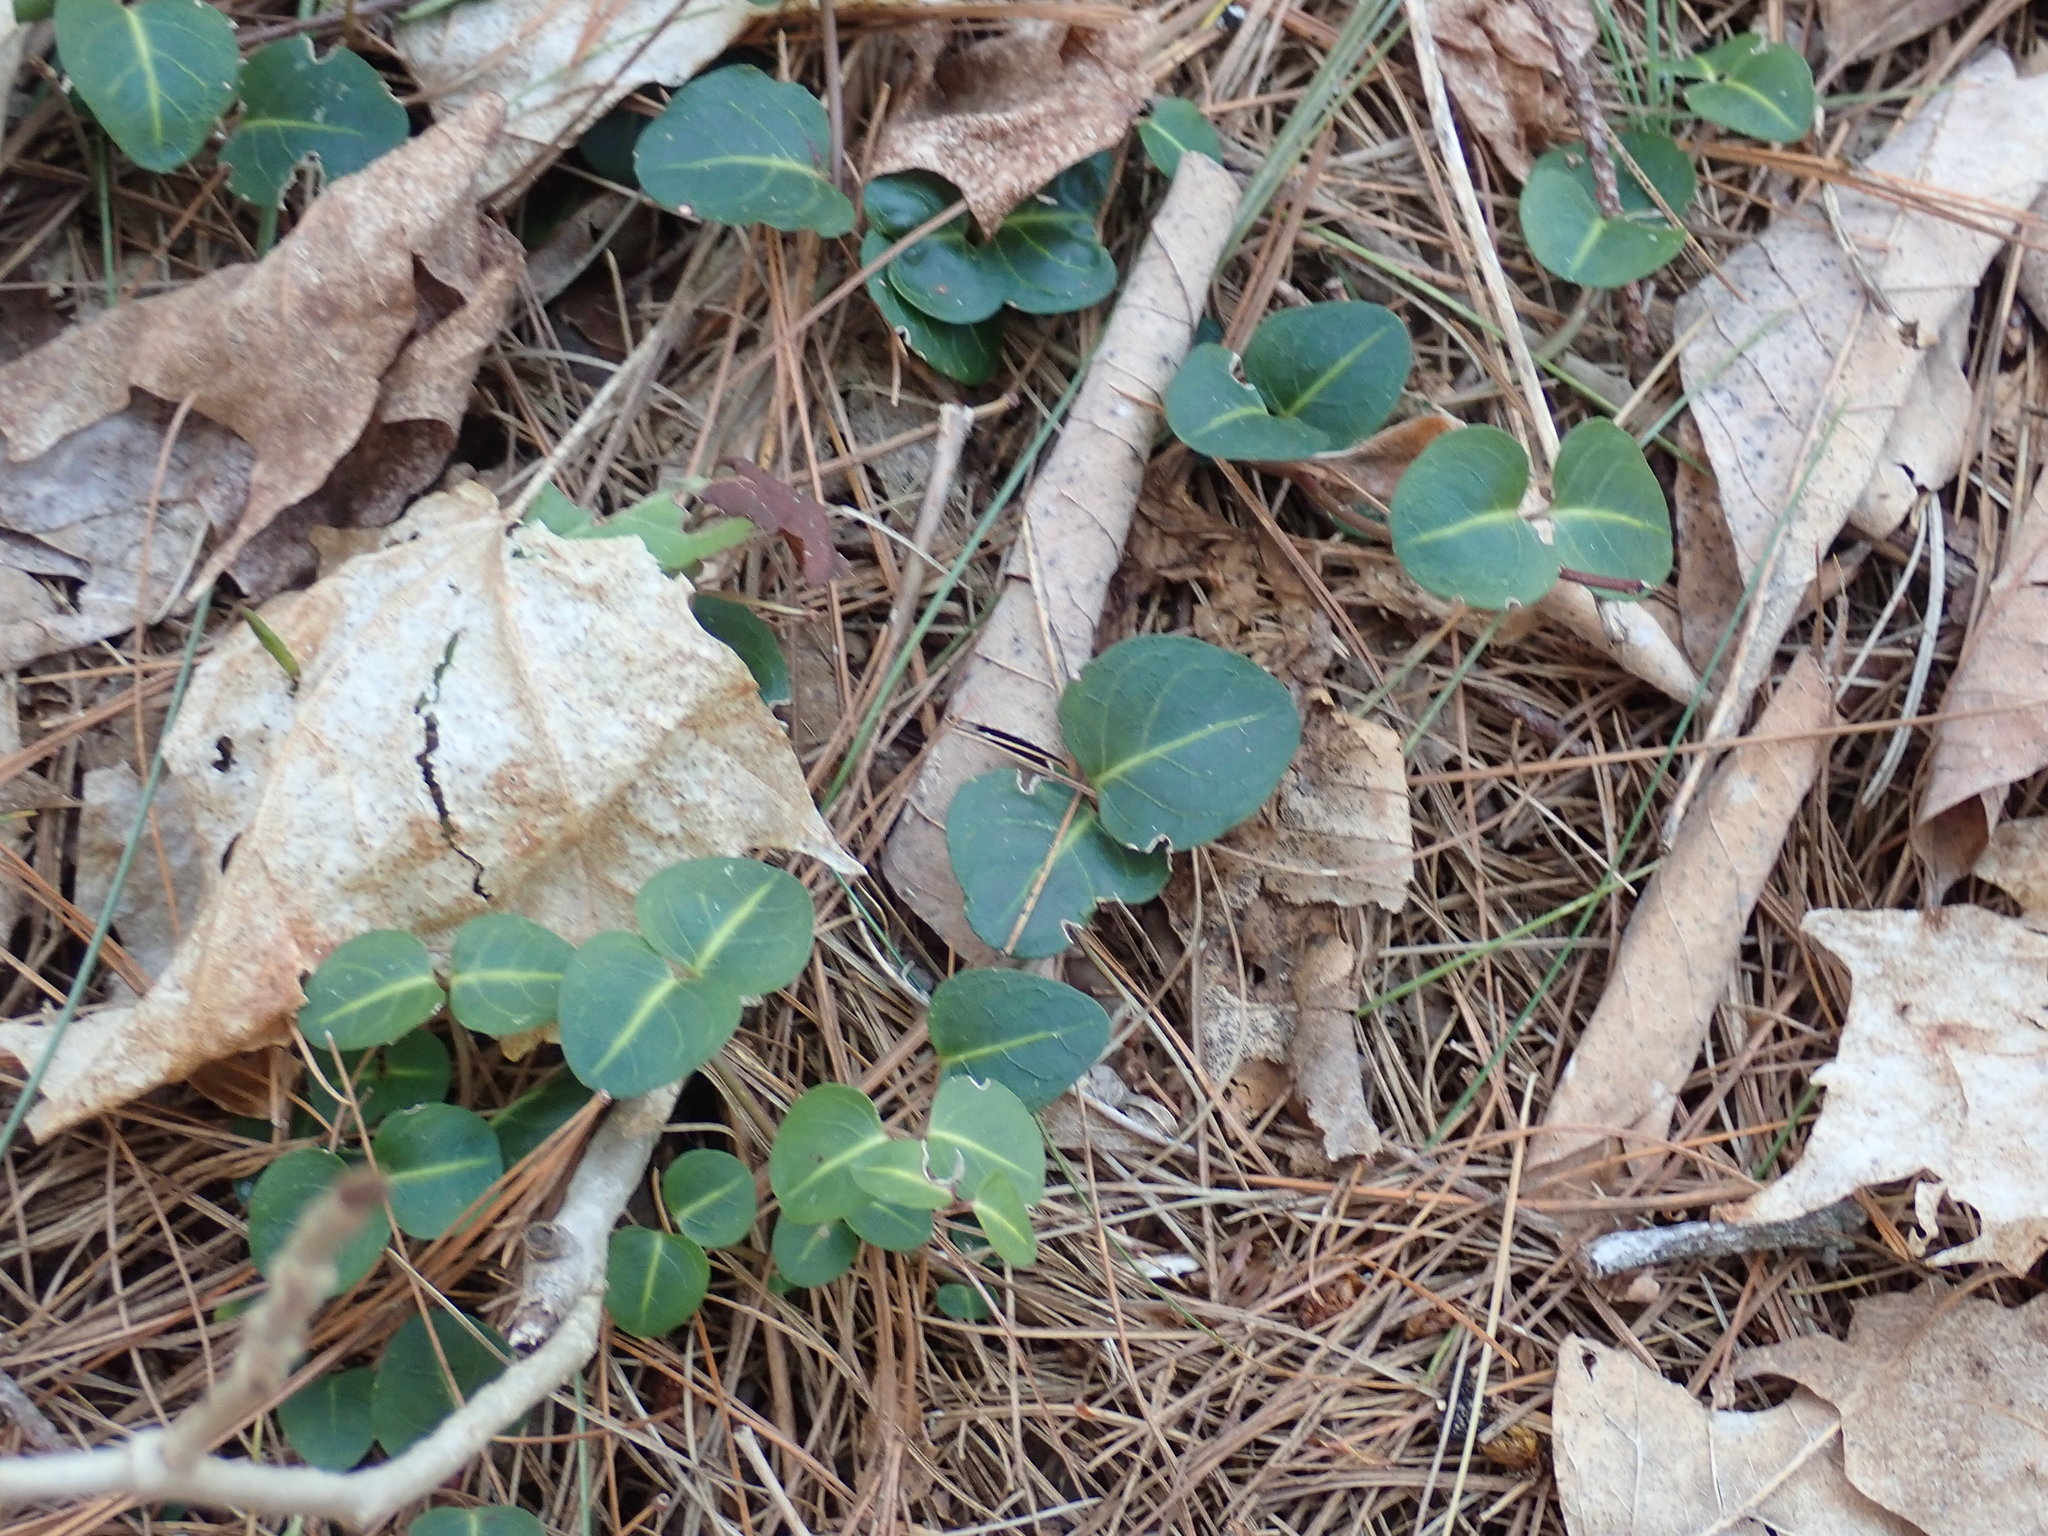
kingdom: Plantae
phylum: Tracheophyta
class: Magnoliopsida
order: Gentianales
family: Rubiaceae
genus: Mitchella
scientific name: Mitchella repens
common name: Partridge-berry
